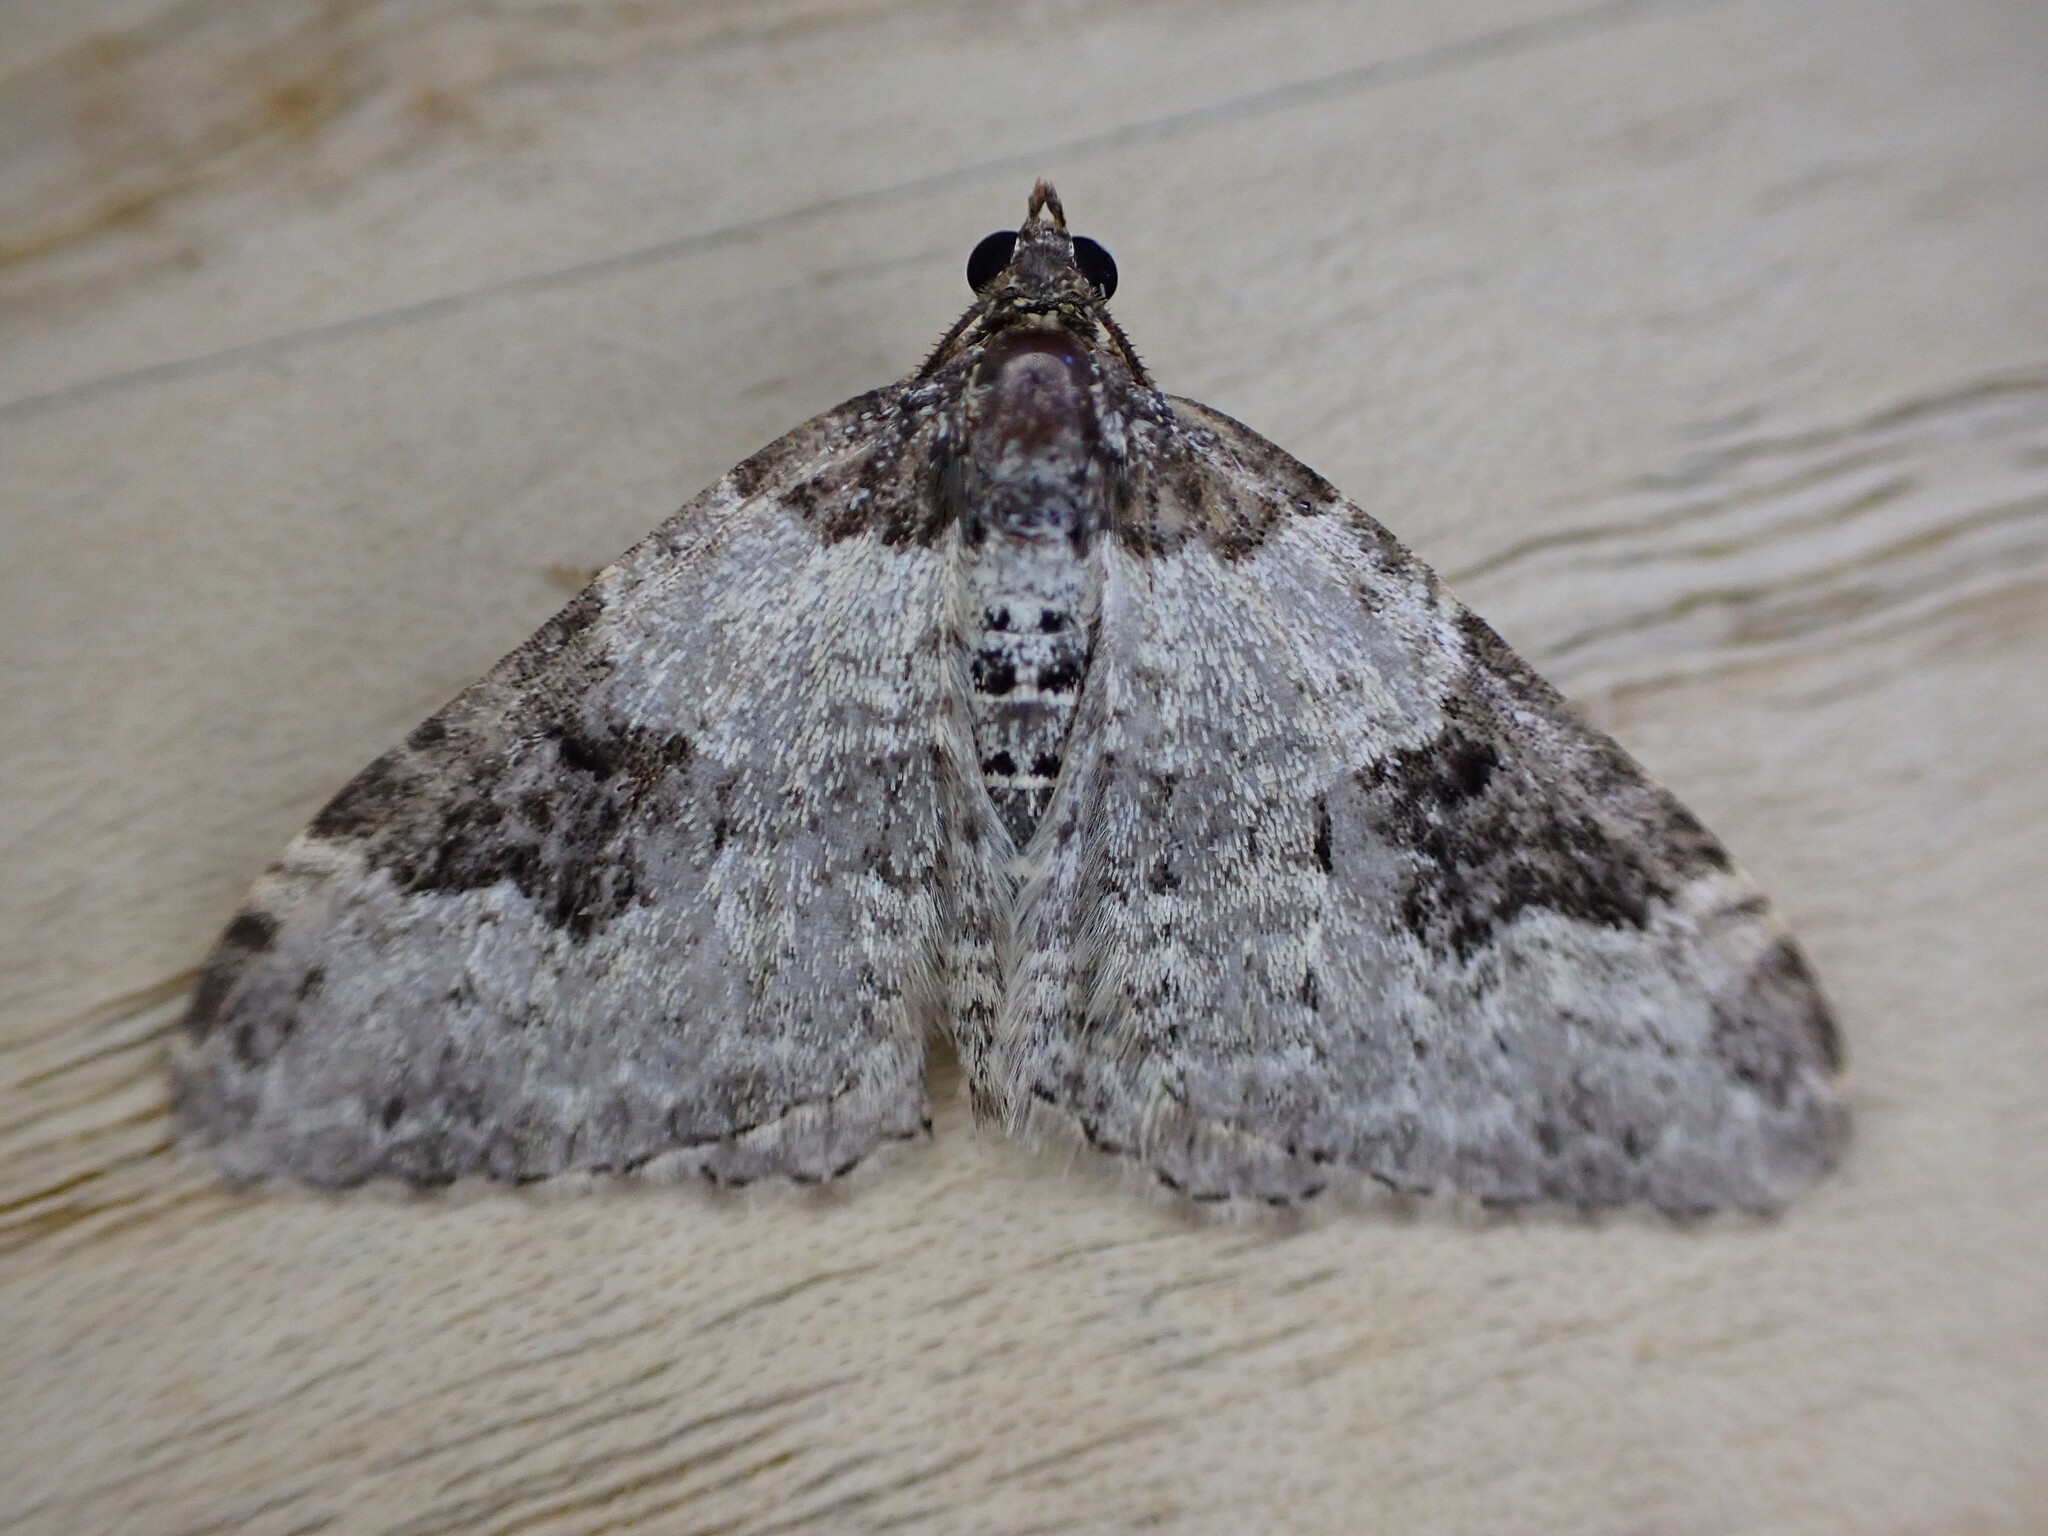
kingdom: Animalia
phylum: Arthropoda
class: Insecta
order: Lepidoptera
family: Geometridae
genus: Xanthorhoe
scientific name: Xanthorhoe fluctuata
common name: Garden carpet
